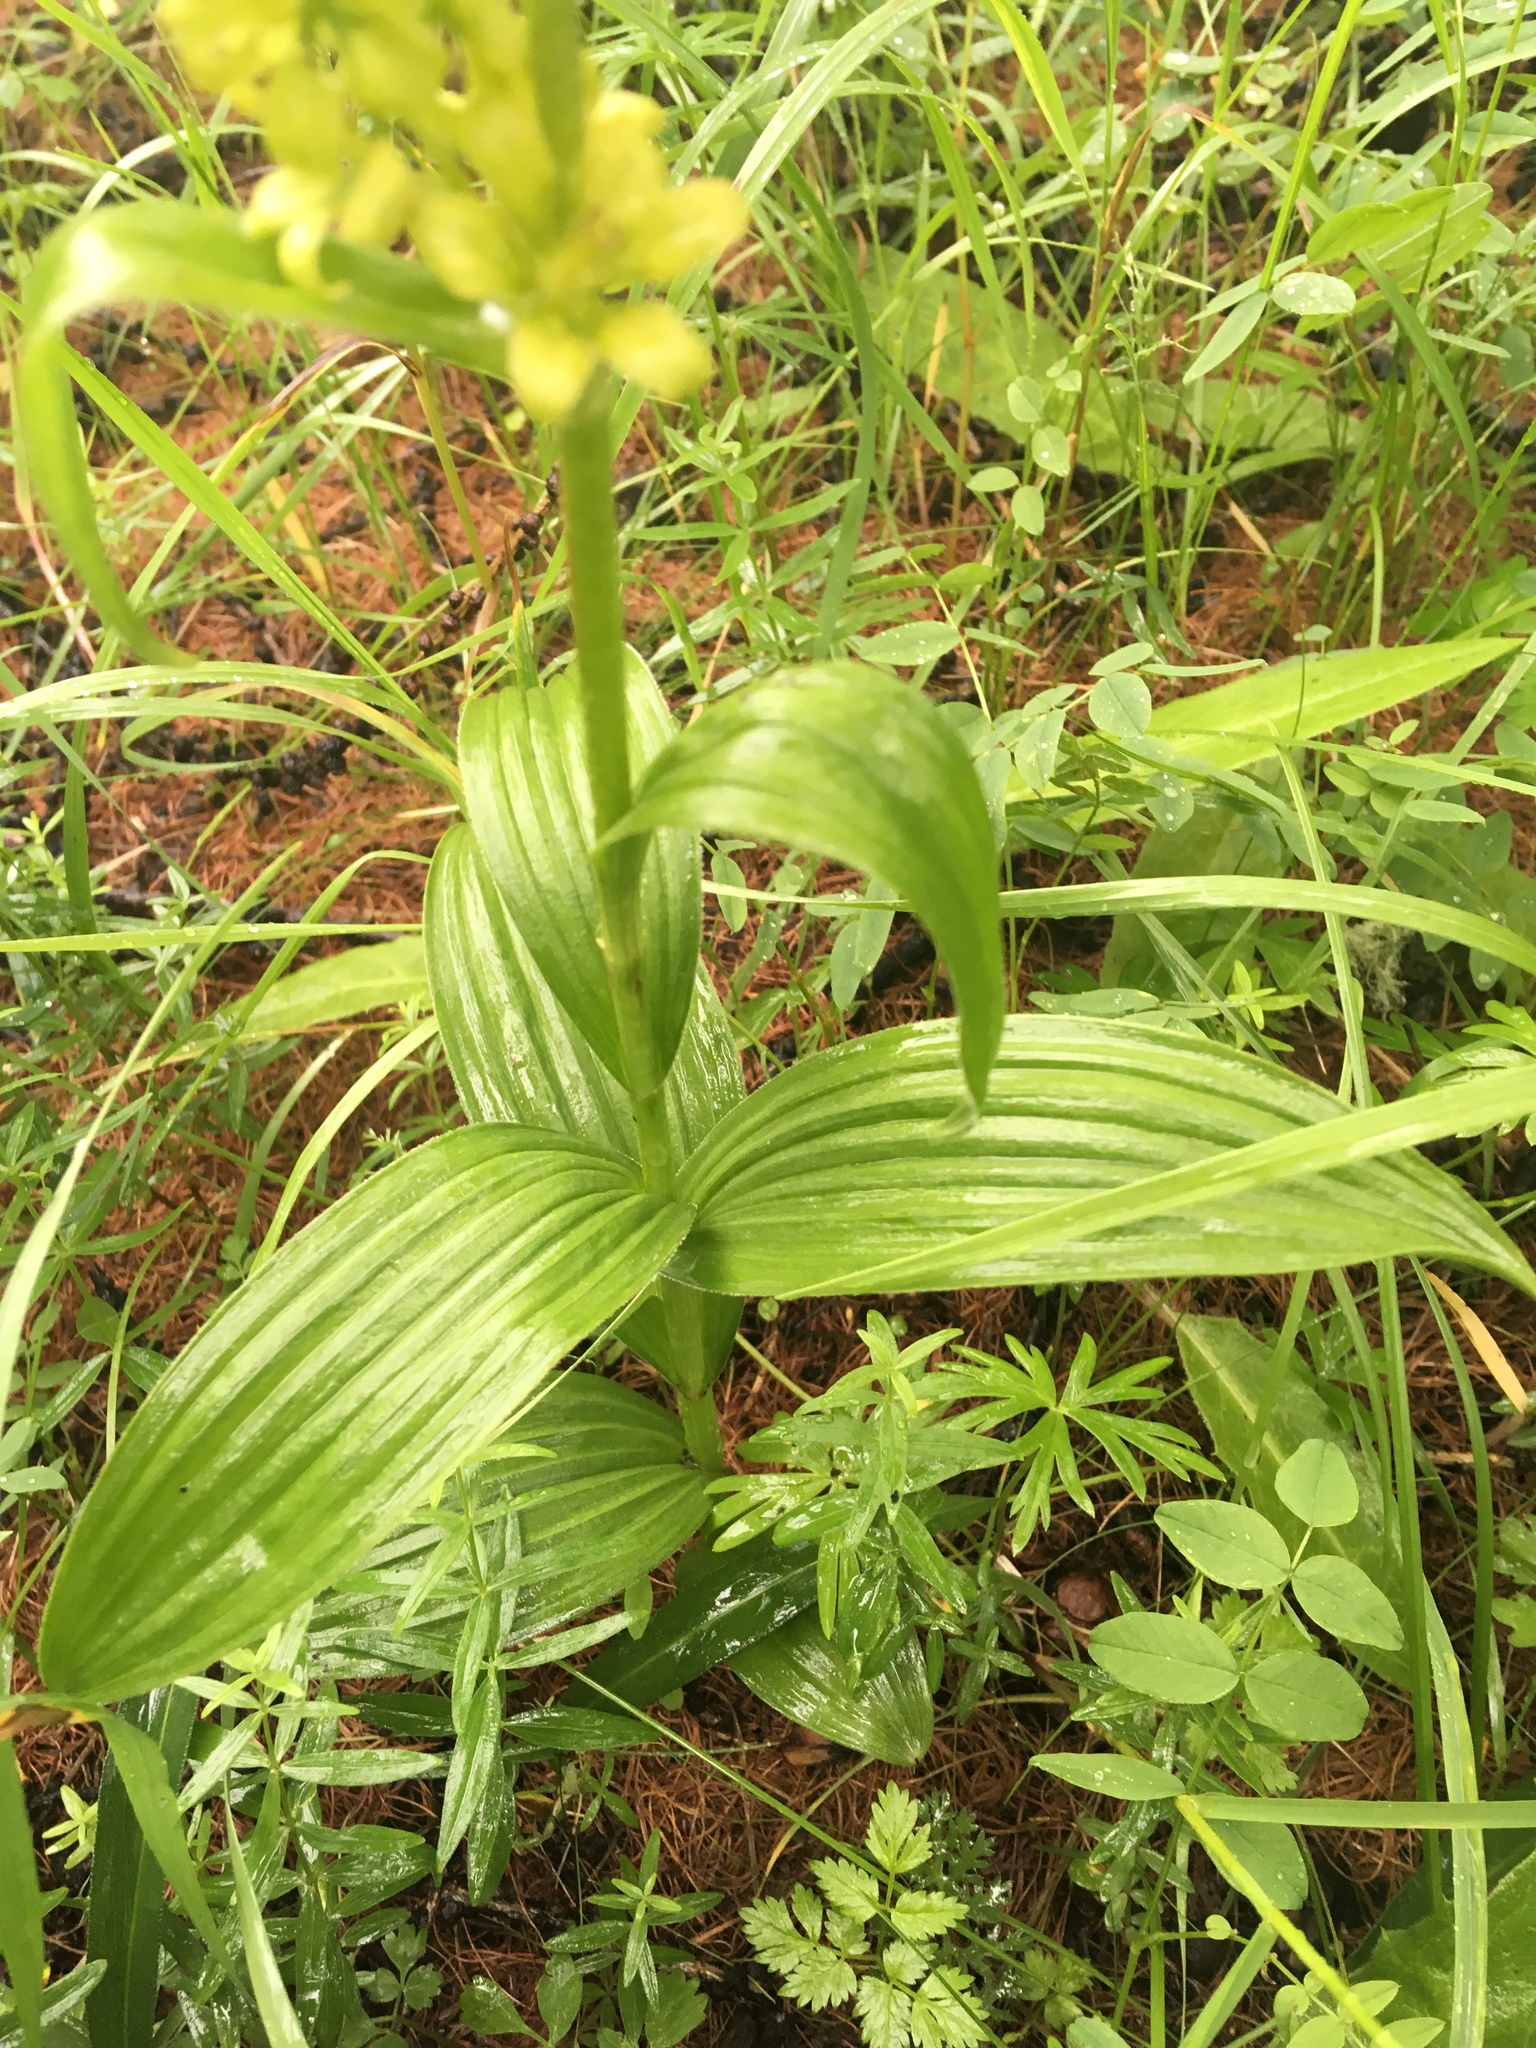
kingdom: Plantae
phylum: Tracheophyta
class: Liliopsida
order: Liliales
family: Melanthiaceae
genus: Veratrum
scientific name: Veratrum lobelianum
